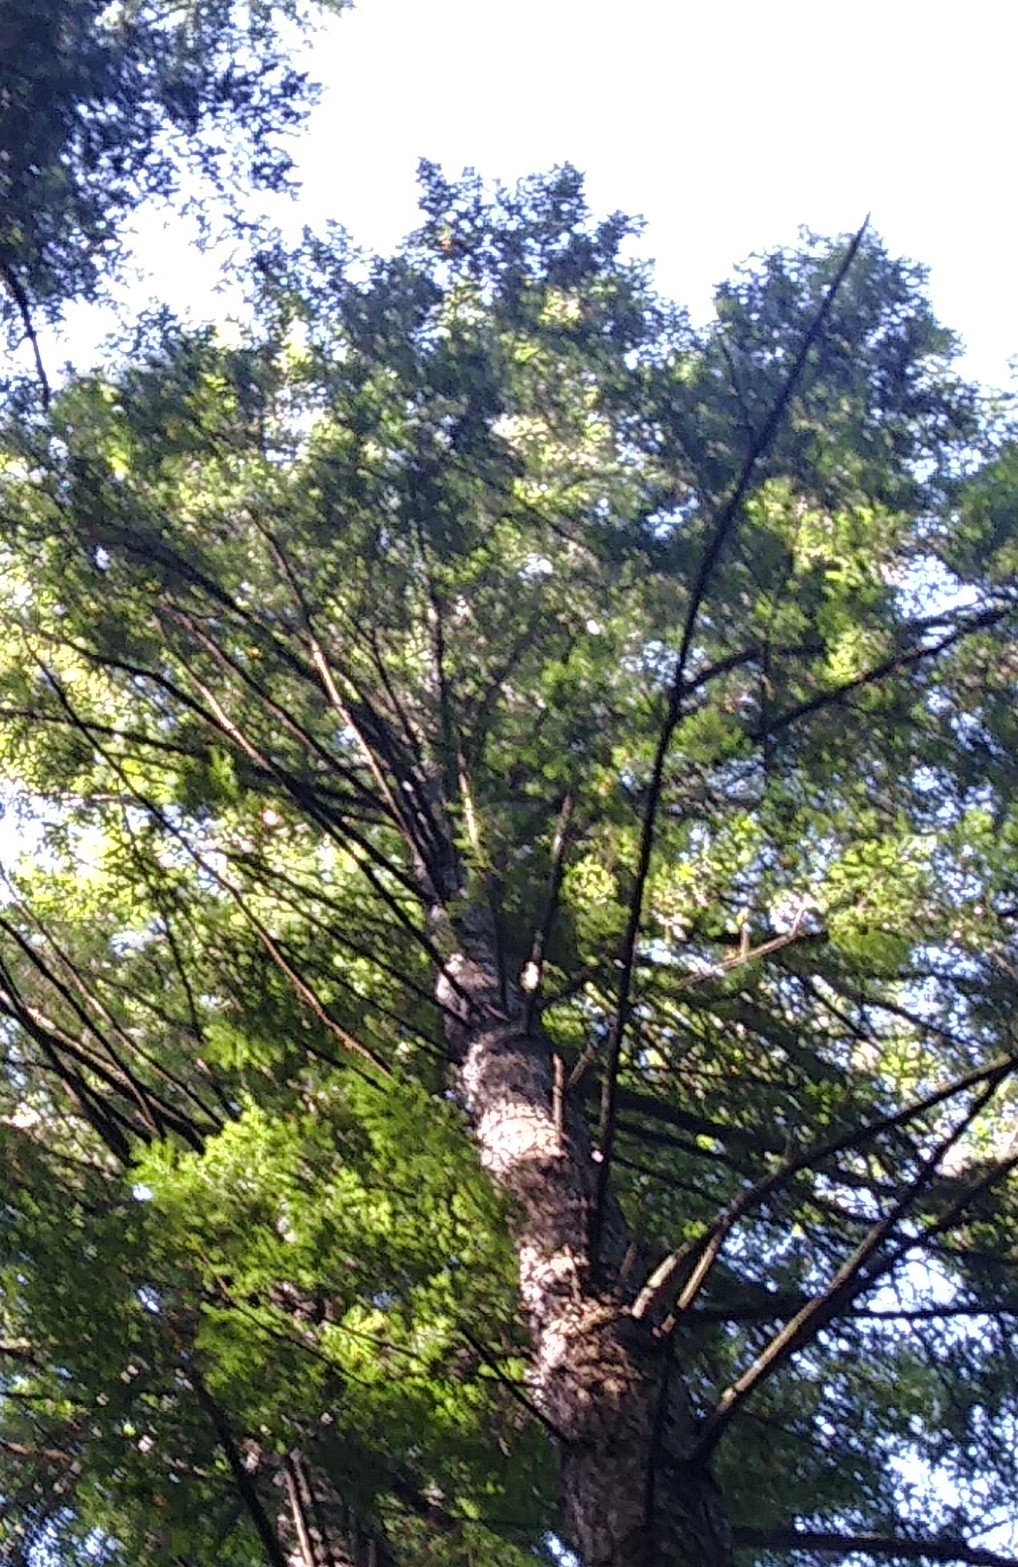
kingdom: Plantae
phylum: Tracheophyta
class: Pinopsida
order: Pinales
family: Pinaceae
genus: Tsuga
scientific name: Tsuga canadensis
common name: Eastern hemlock
